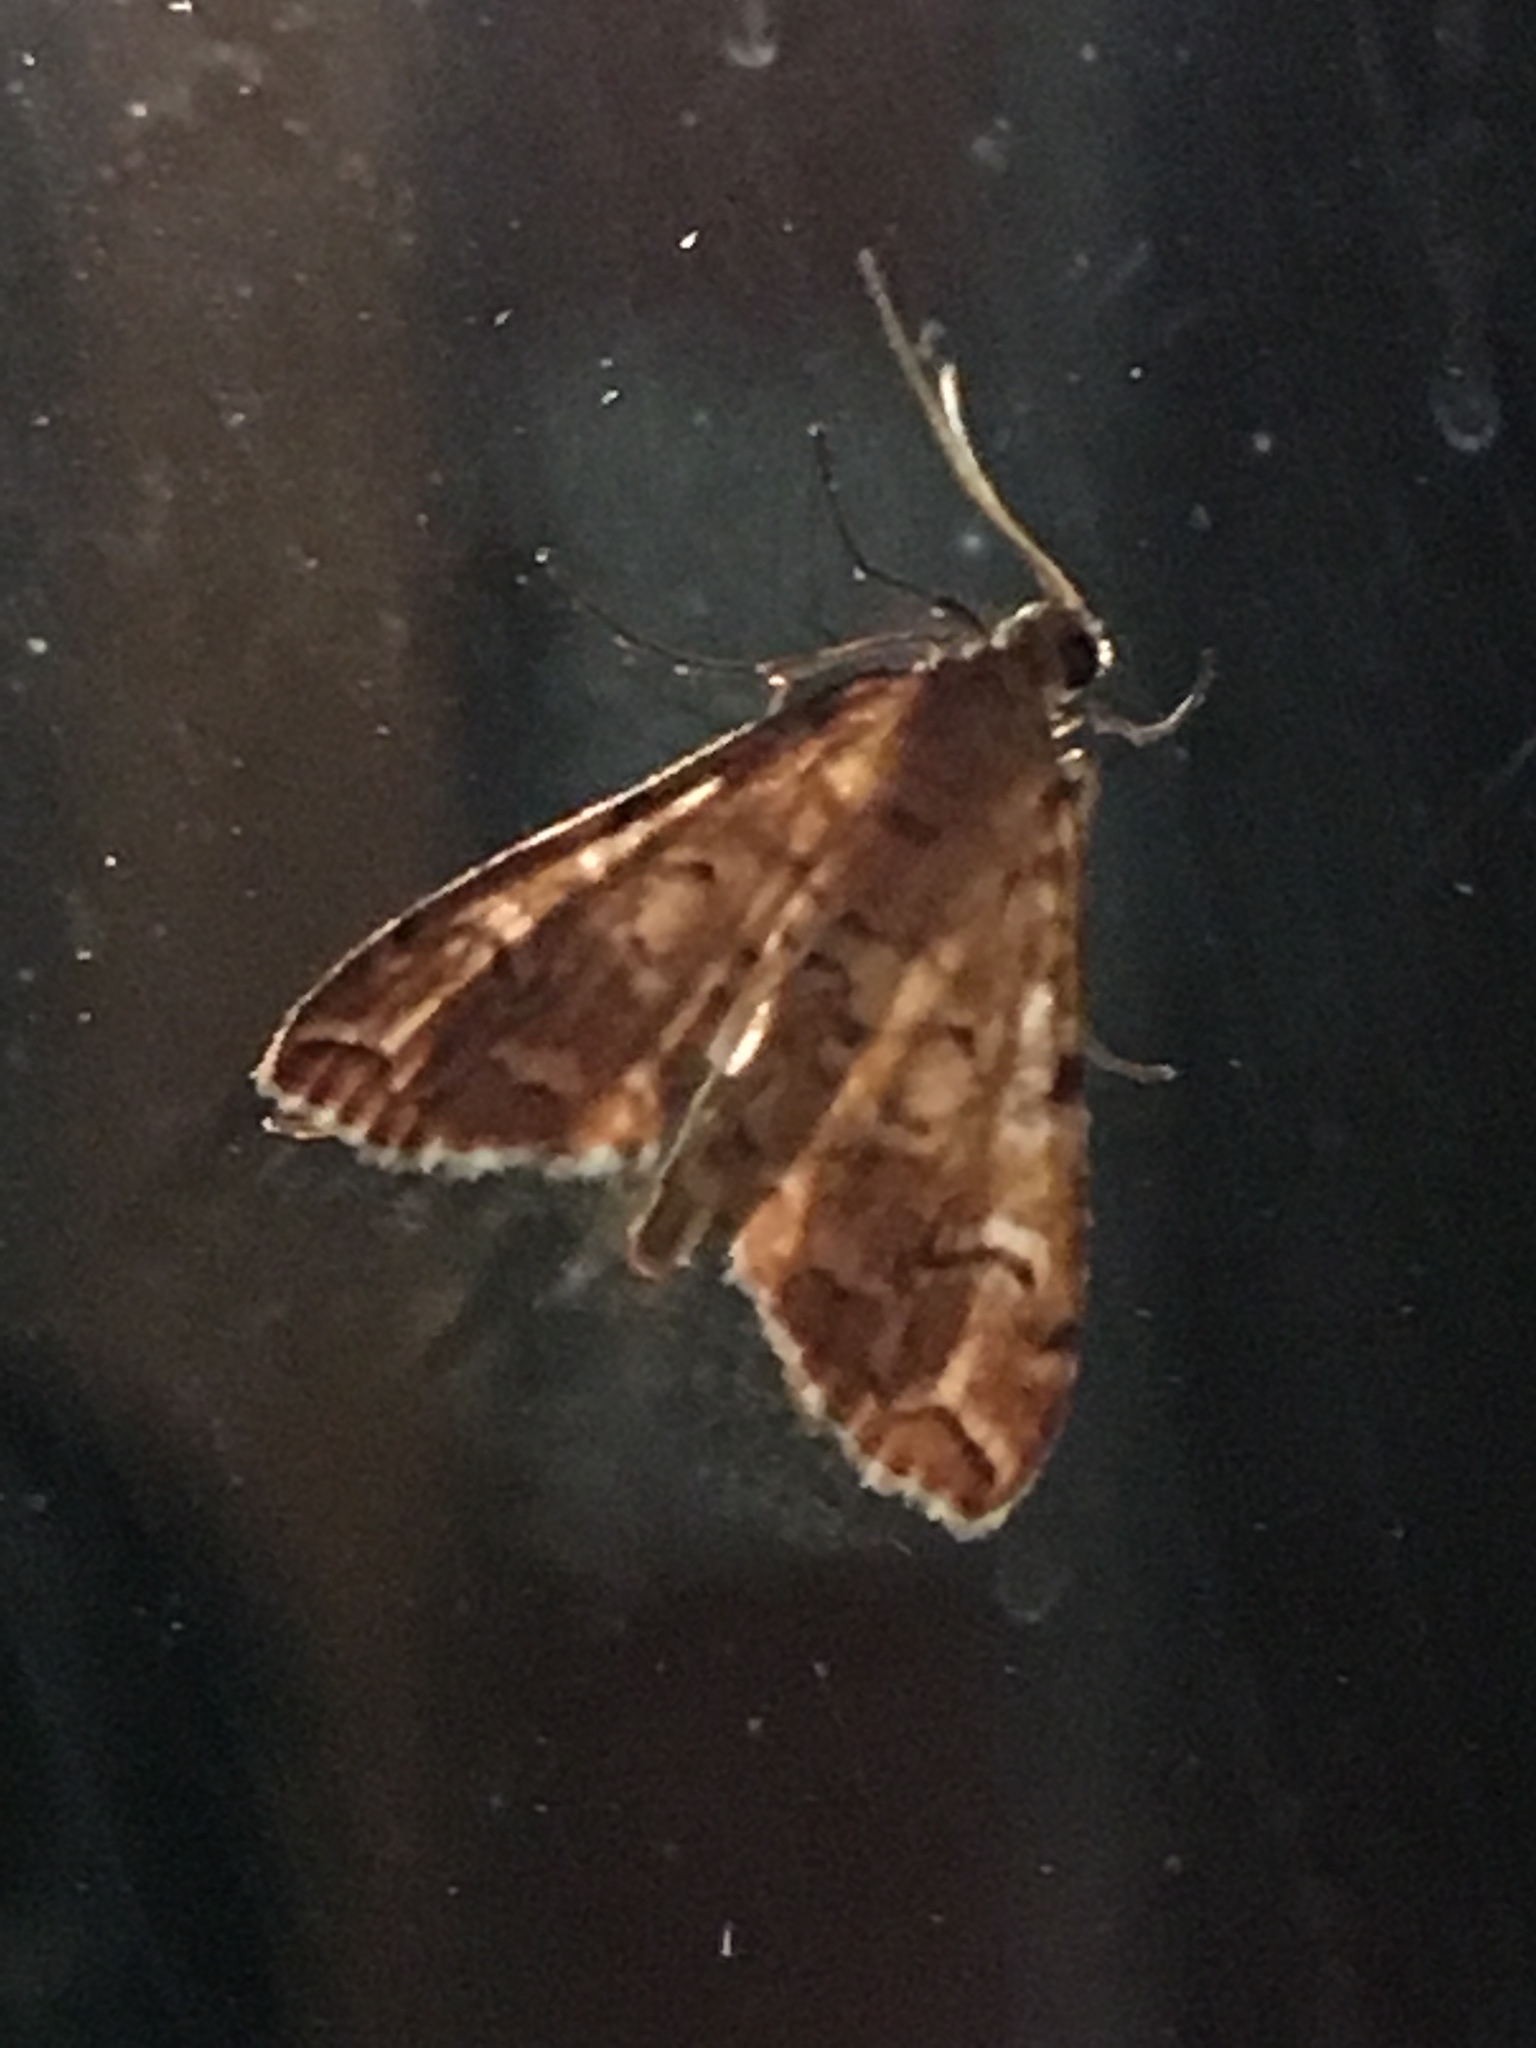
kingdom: Animalia
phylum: Arthropoda
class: Insecta
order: Lepidoptera
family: Crambidae
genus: Elophila
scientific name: Elophila icciusalis
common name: Pondside pyralid moth
